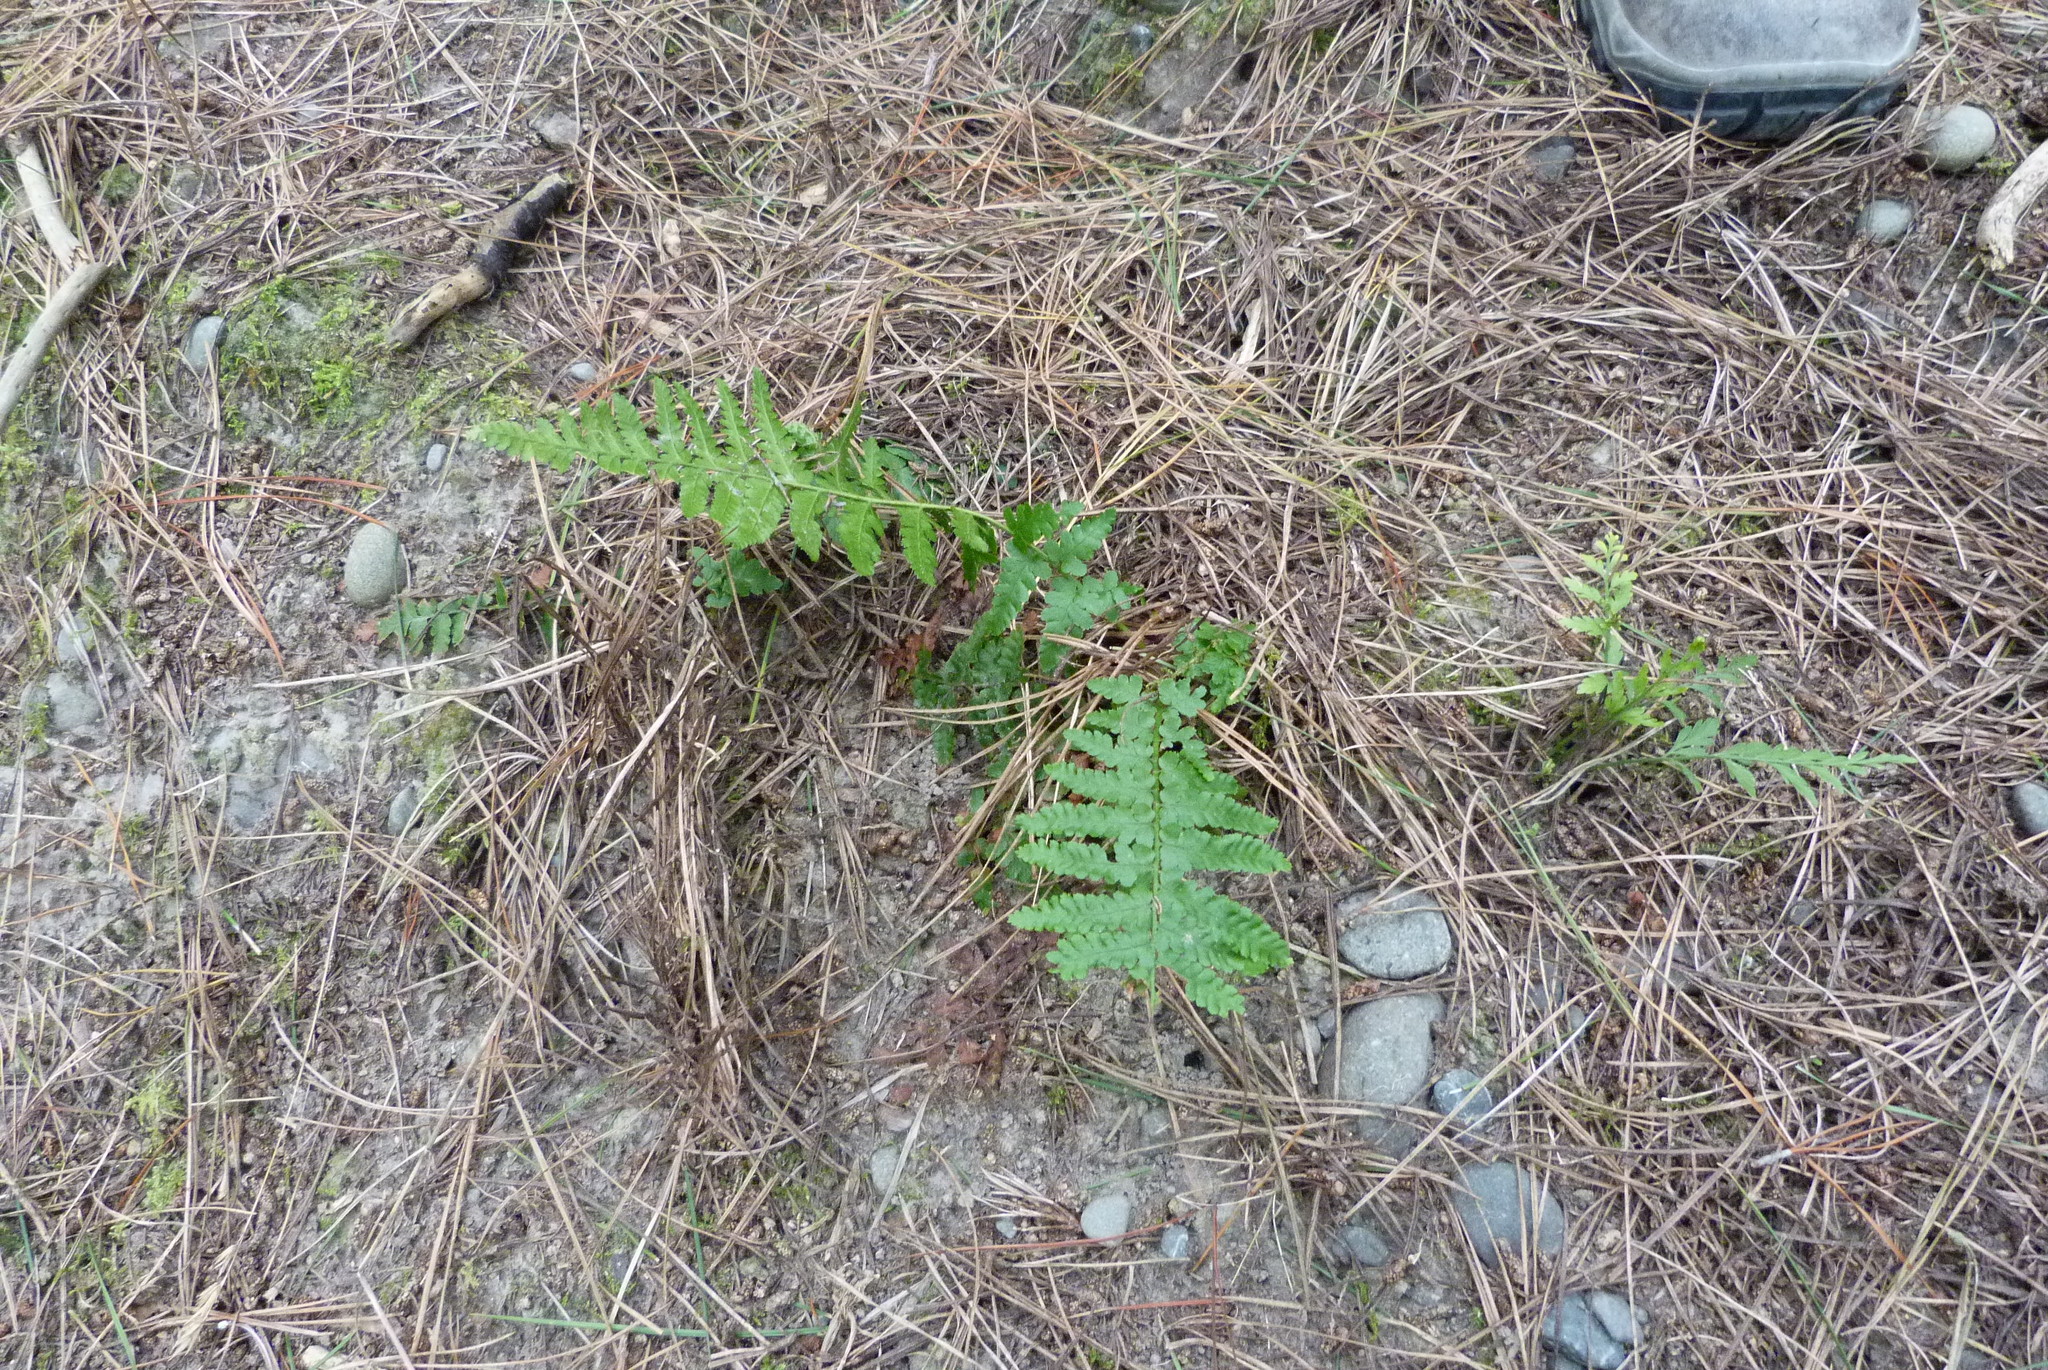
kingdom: Plantae
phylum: Tracheophyta
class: Polypodiopsida
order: Polypodiales
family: Dryopteridaceae
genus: Dryopteris
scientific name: Dryopteris filix-mas
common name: Male fern
